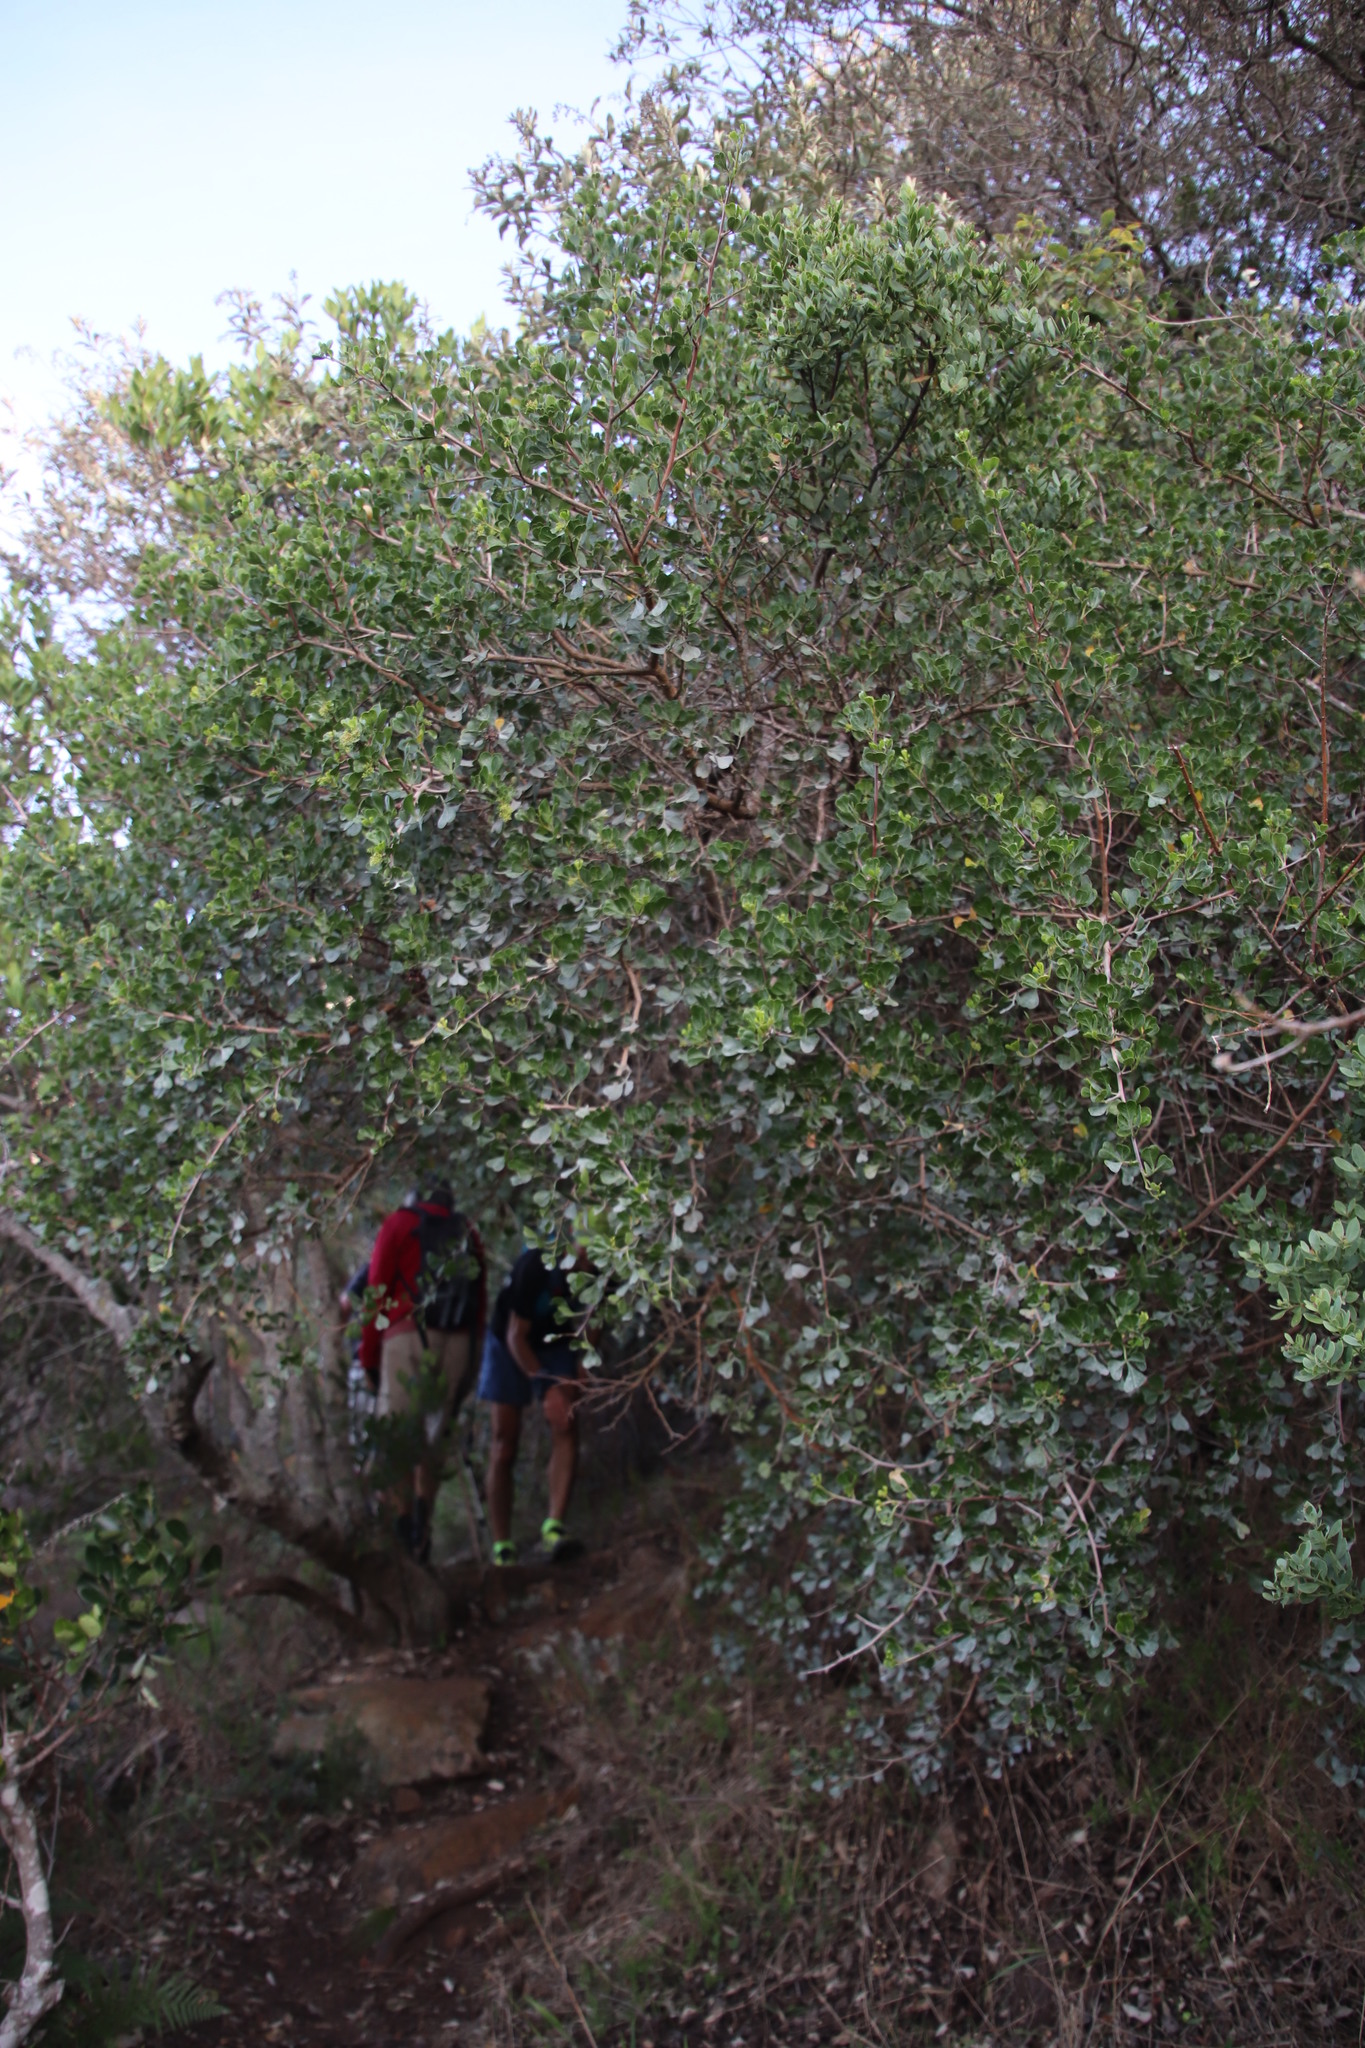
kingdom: Plantae
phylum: Tracheophyta
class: Magnoliopsida
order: Sapindales
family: Anacardiaceae
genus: Searsia
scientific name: Searsia glauca
